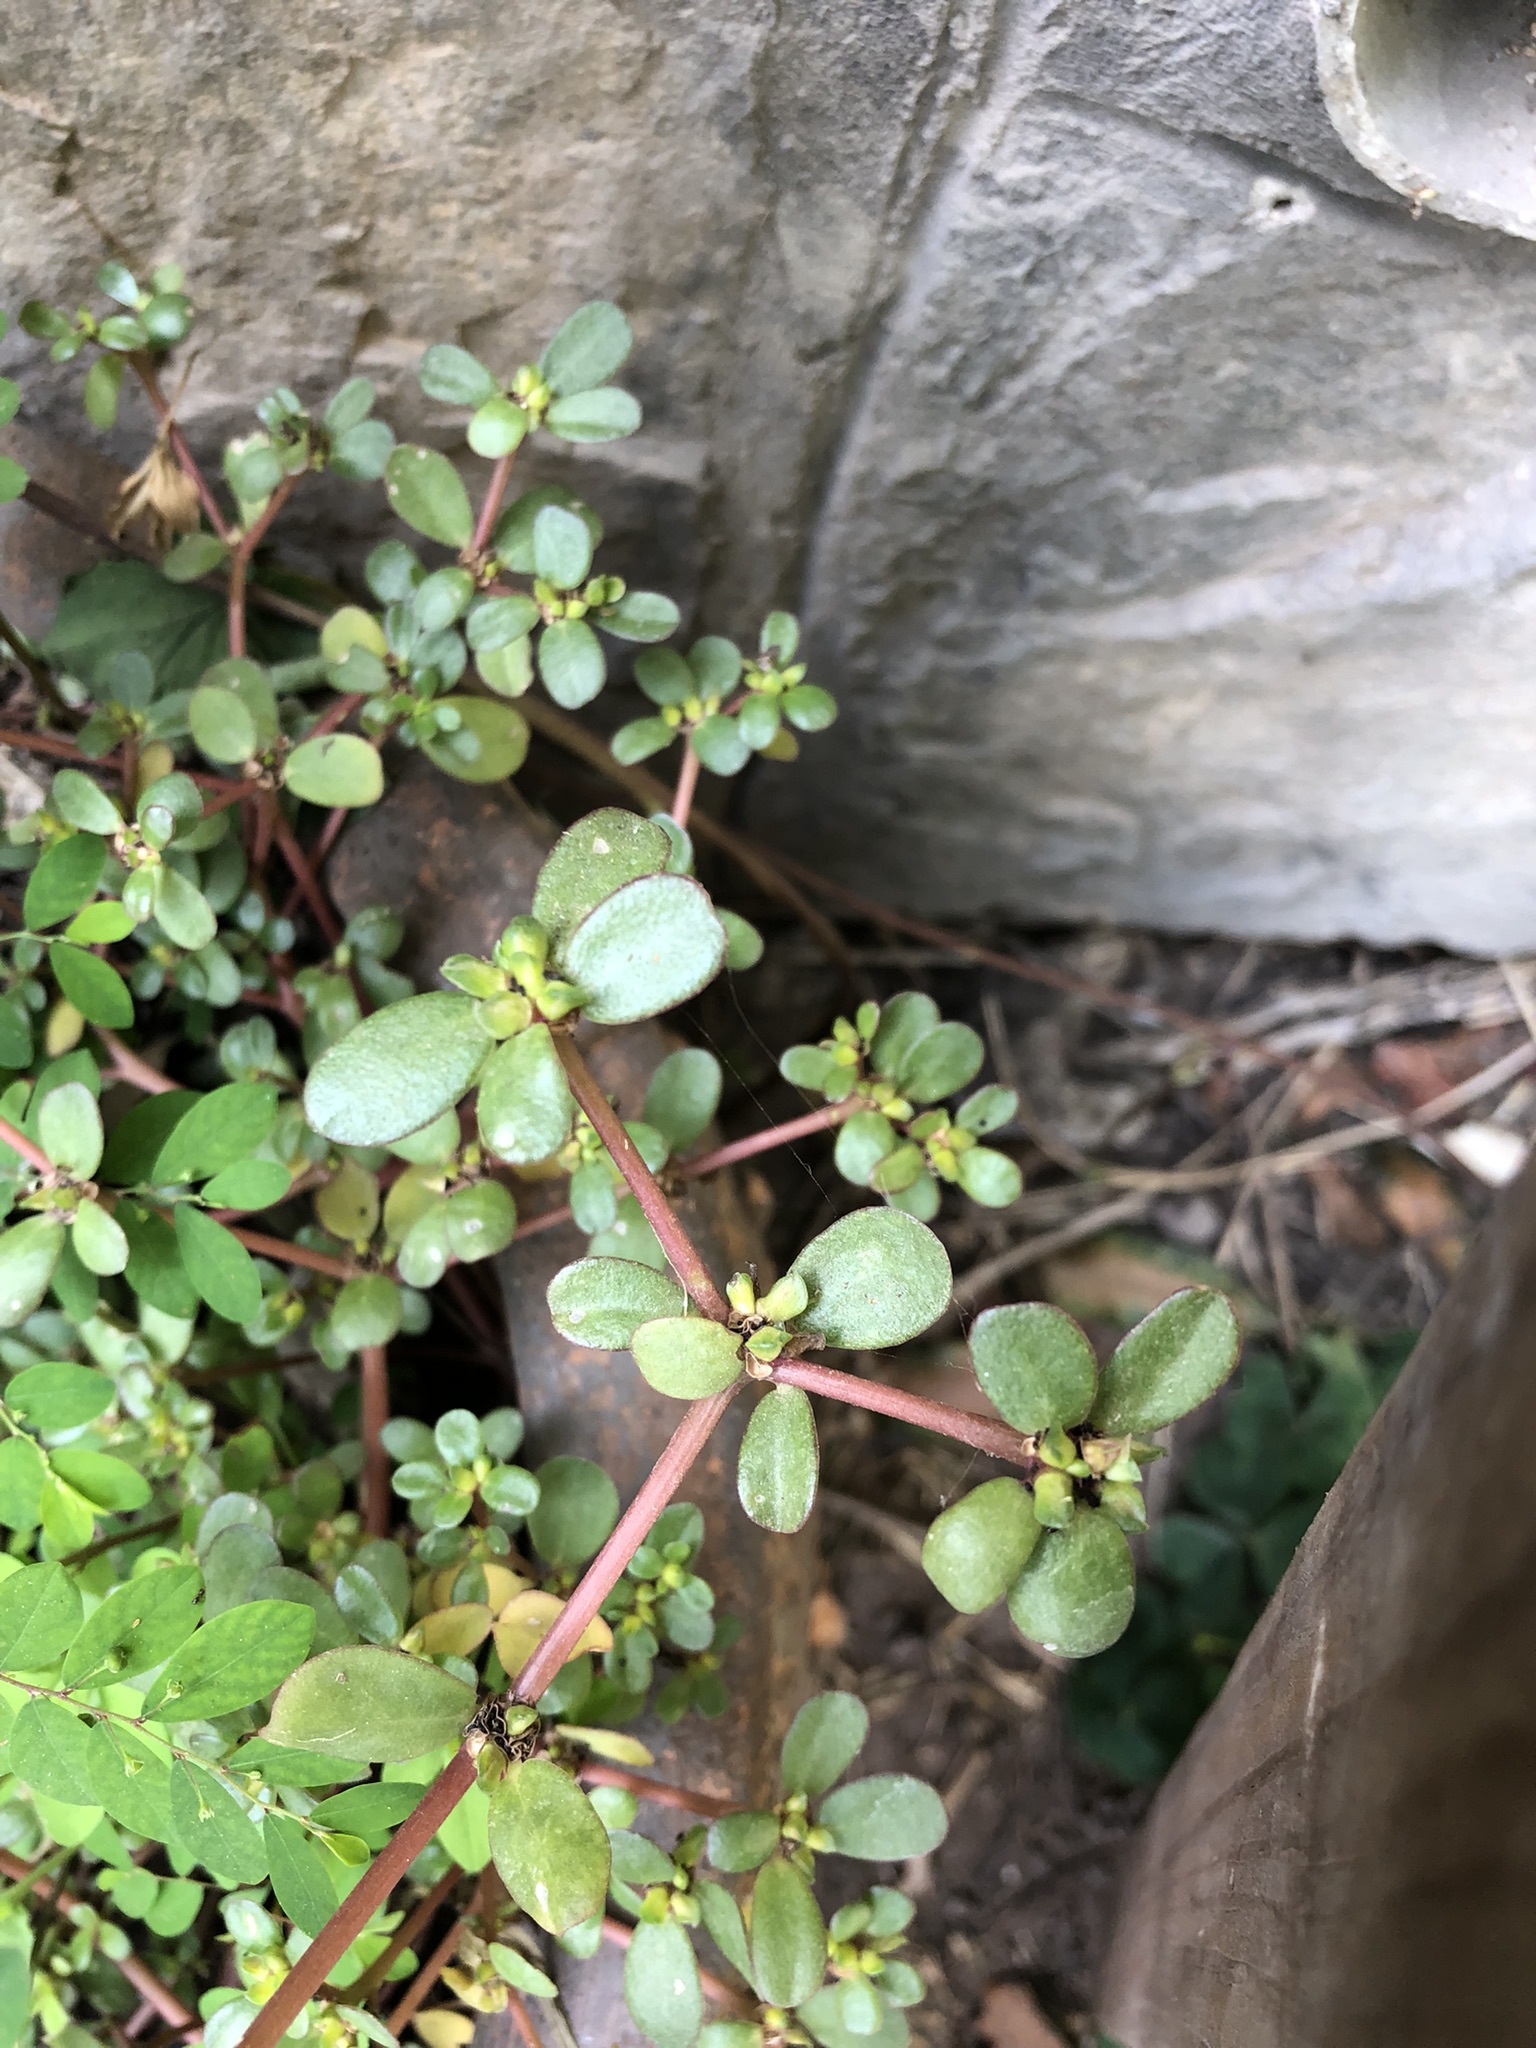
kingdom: Plantae
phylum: Tracheophyta
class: Magnoliopsida
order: Caryophyllales
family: Portulacaceae
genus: Portulaca
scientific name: Portulaca oleracea
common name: Common purslane
